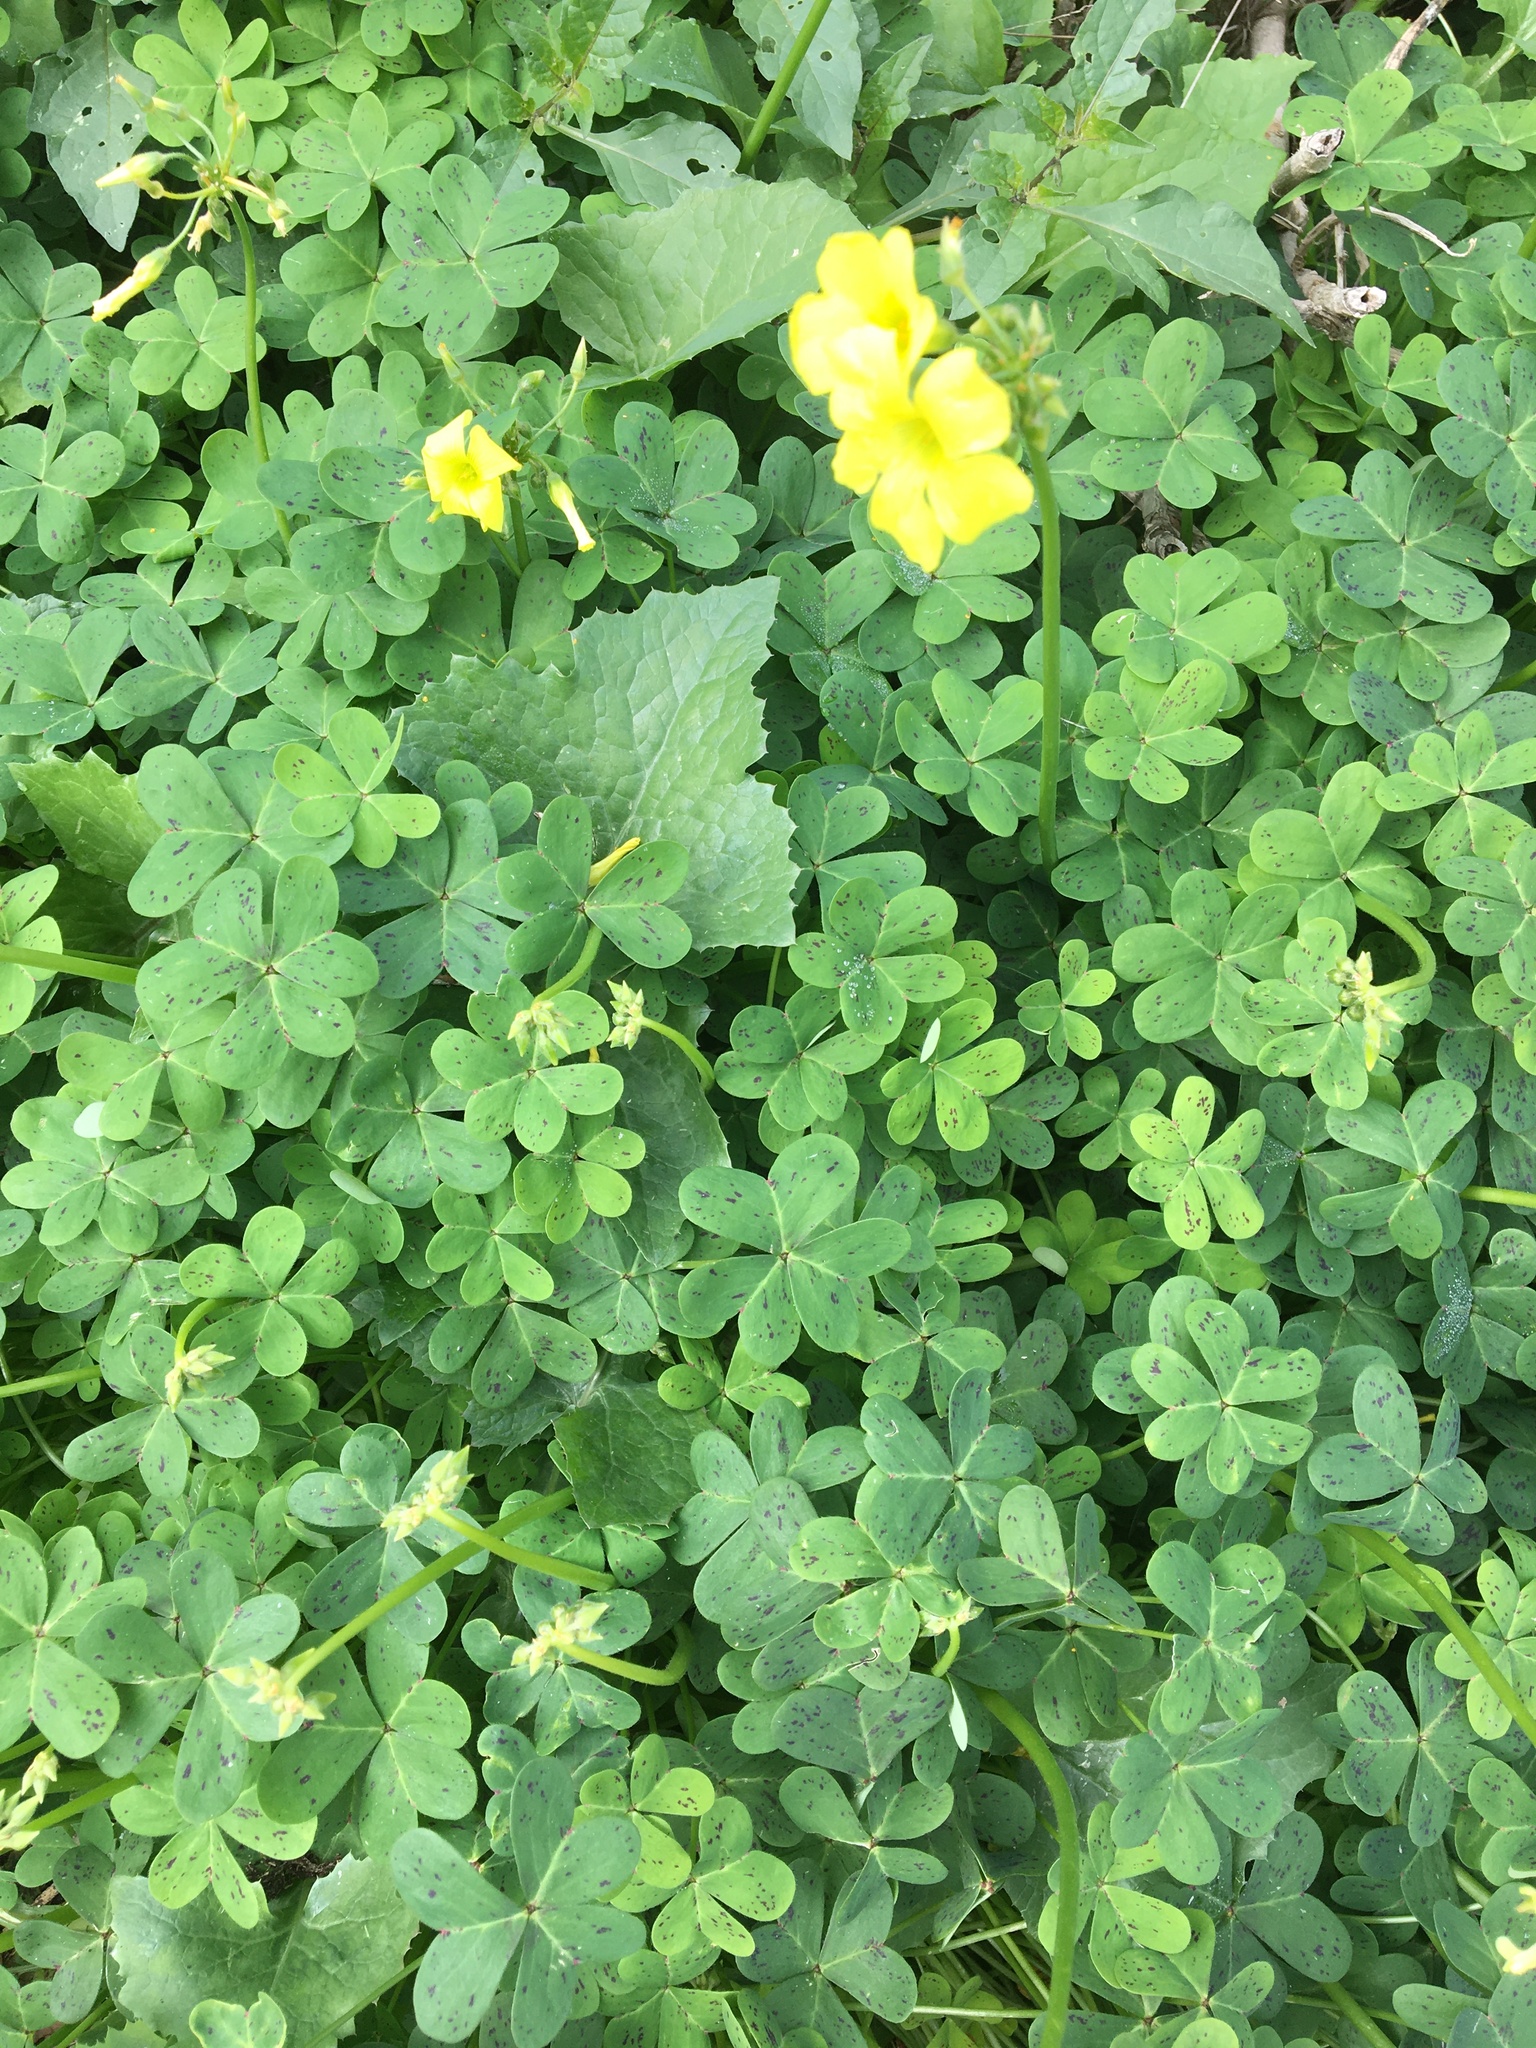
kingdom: Plantae
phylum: Tracheophyta
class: Magnoliopsida
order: Oxalidales
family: Oxalidaceae
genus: Oxalis
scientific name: Oxalis pes-caprae
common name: Bermuda-buttercup
